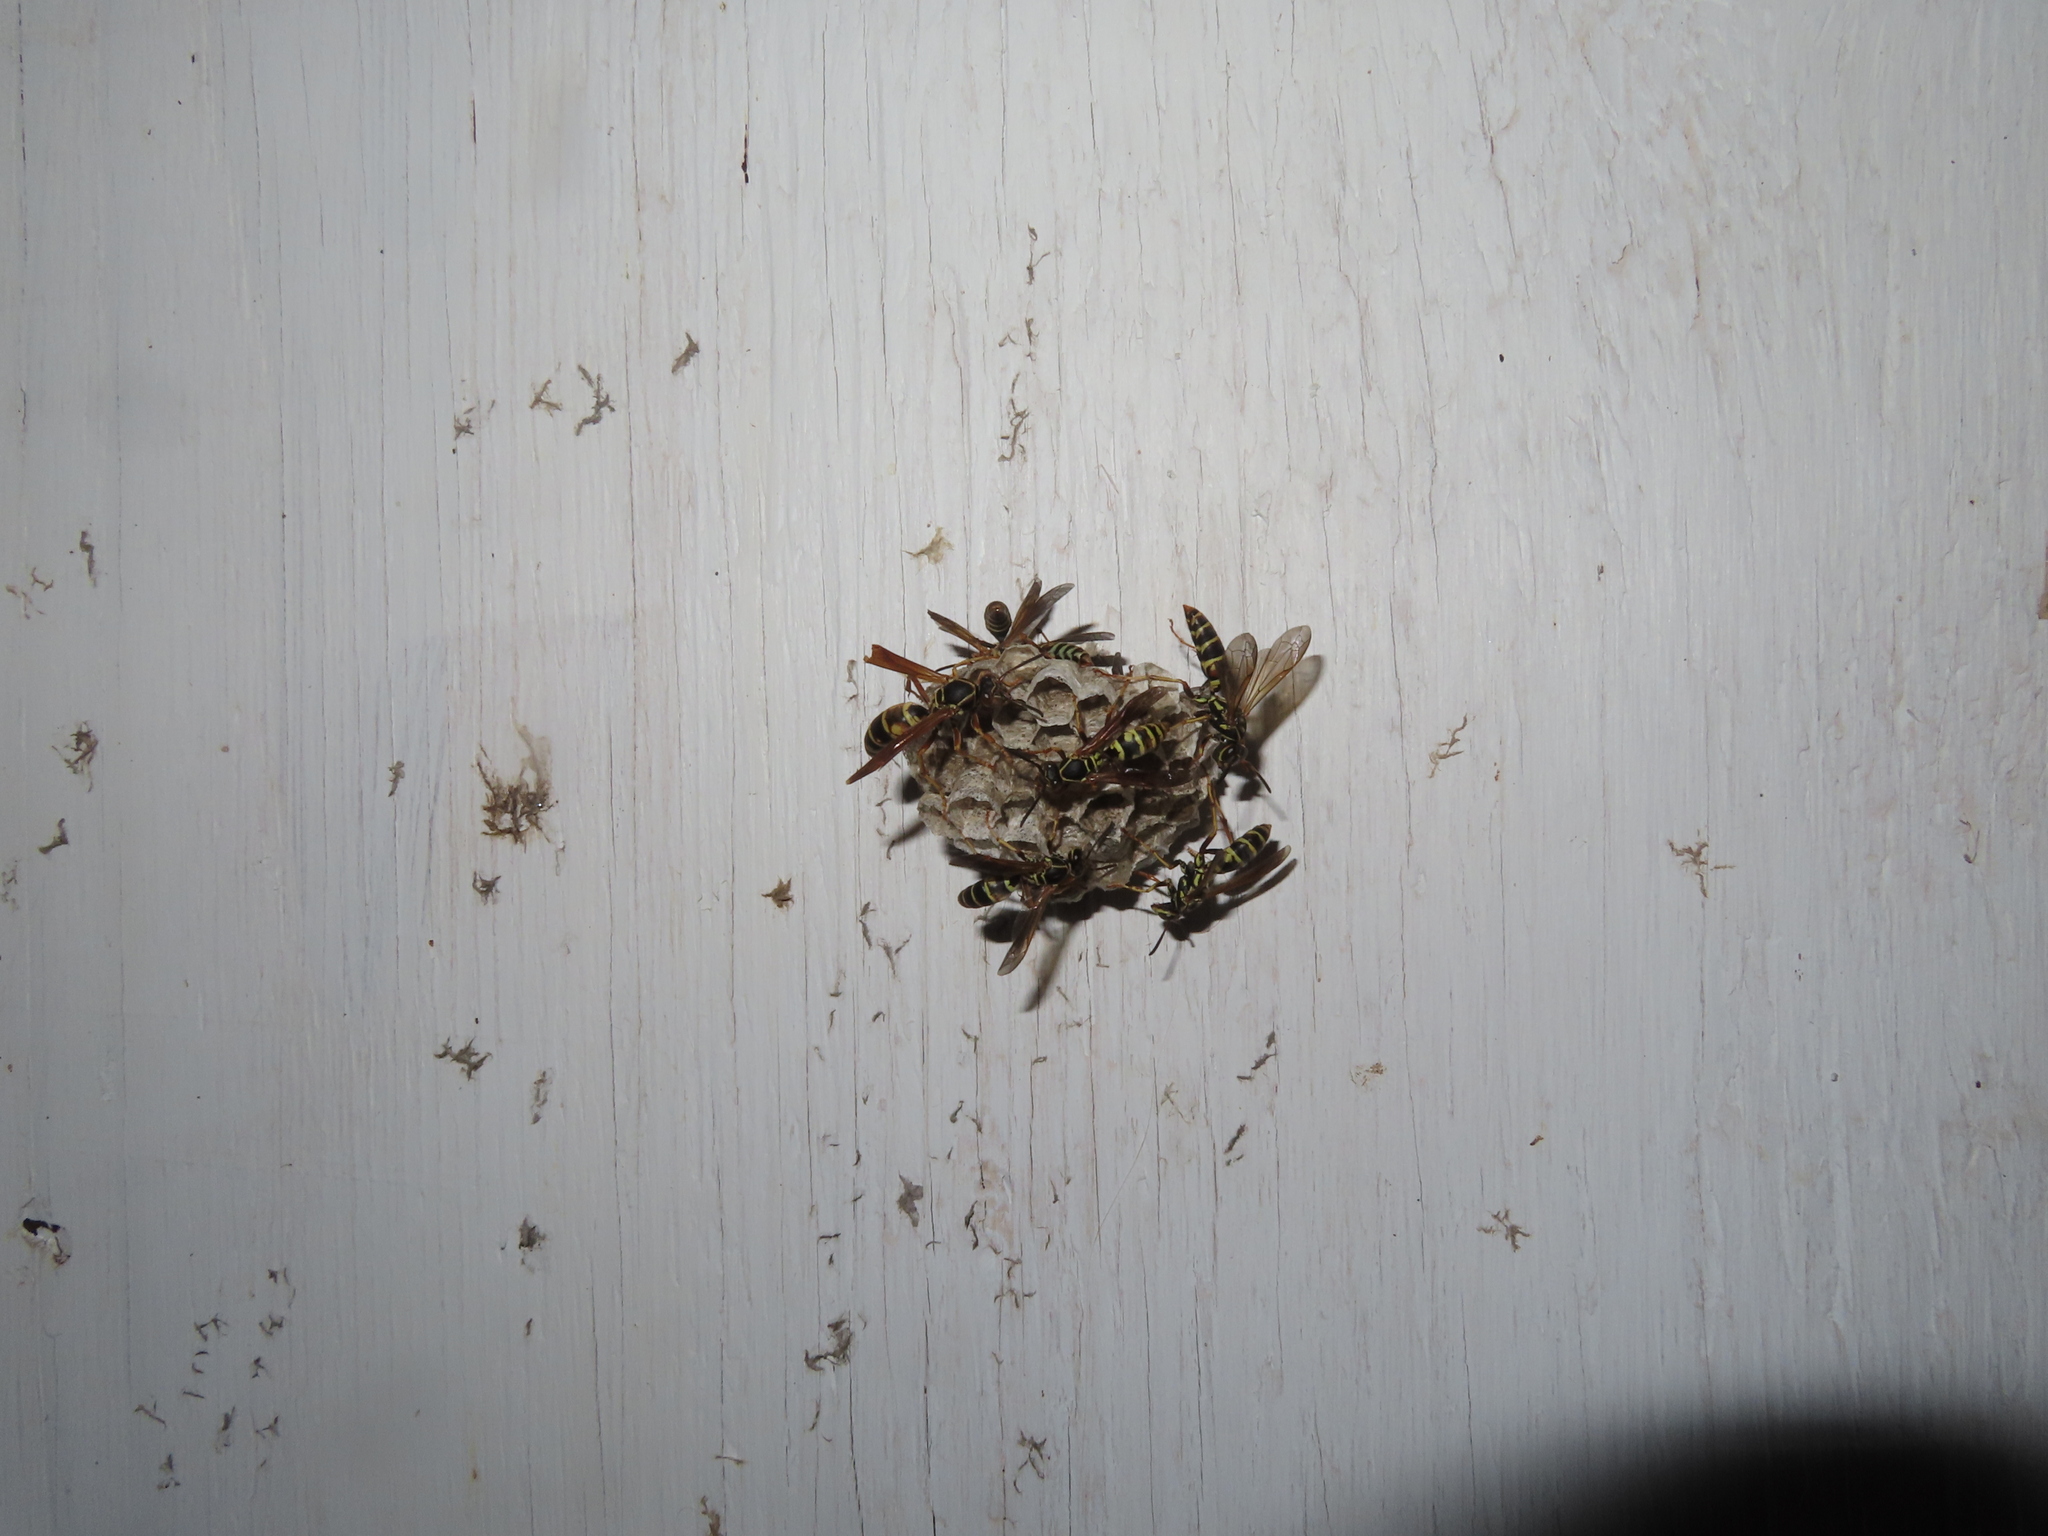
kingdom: Animalia
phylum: Arthropoda
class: Insecta
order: Hymenoptera
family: Eumenidae
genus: Polistes
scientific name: Polistes fuscatus
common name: Dark paper wasp
